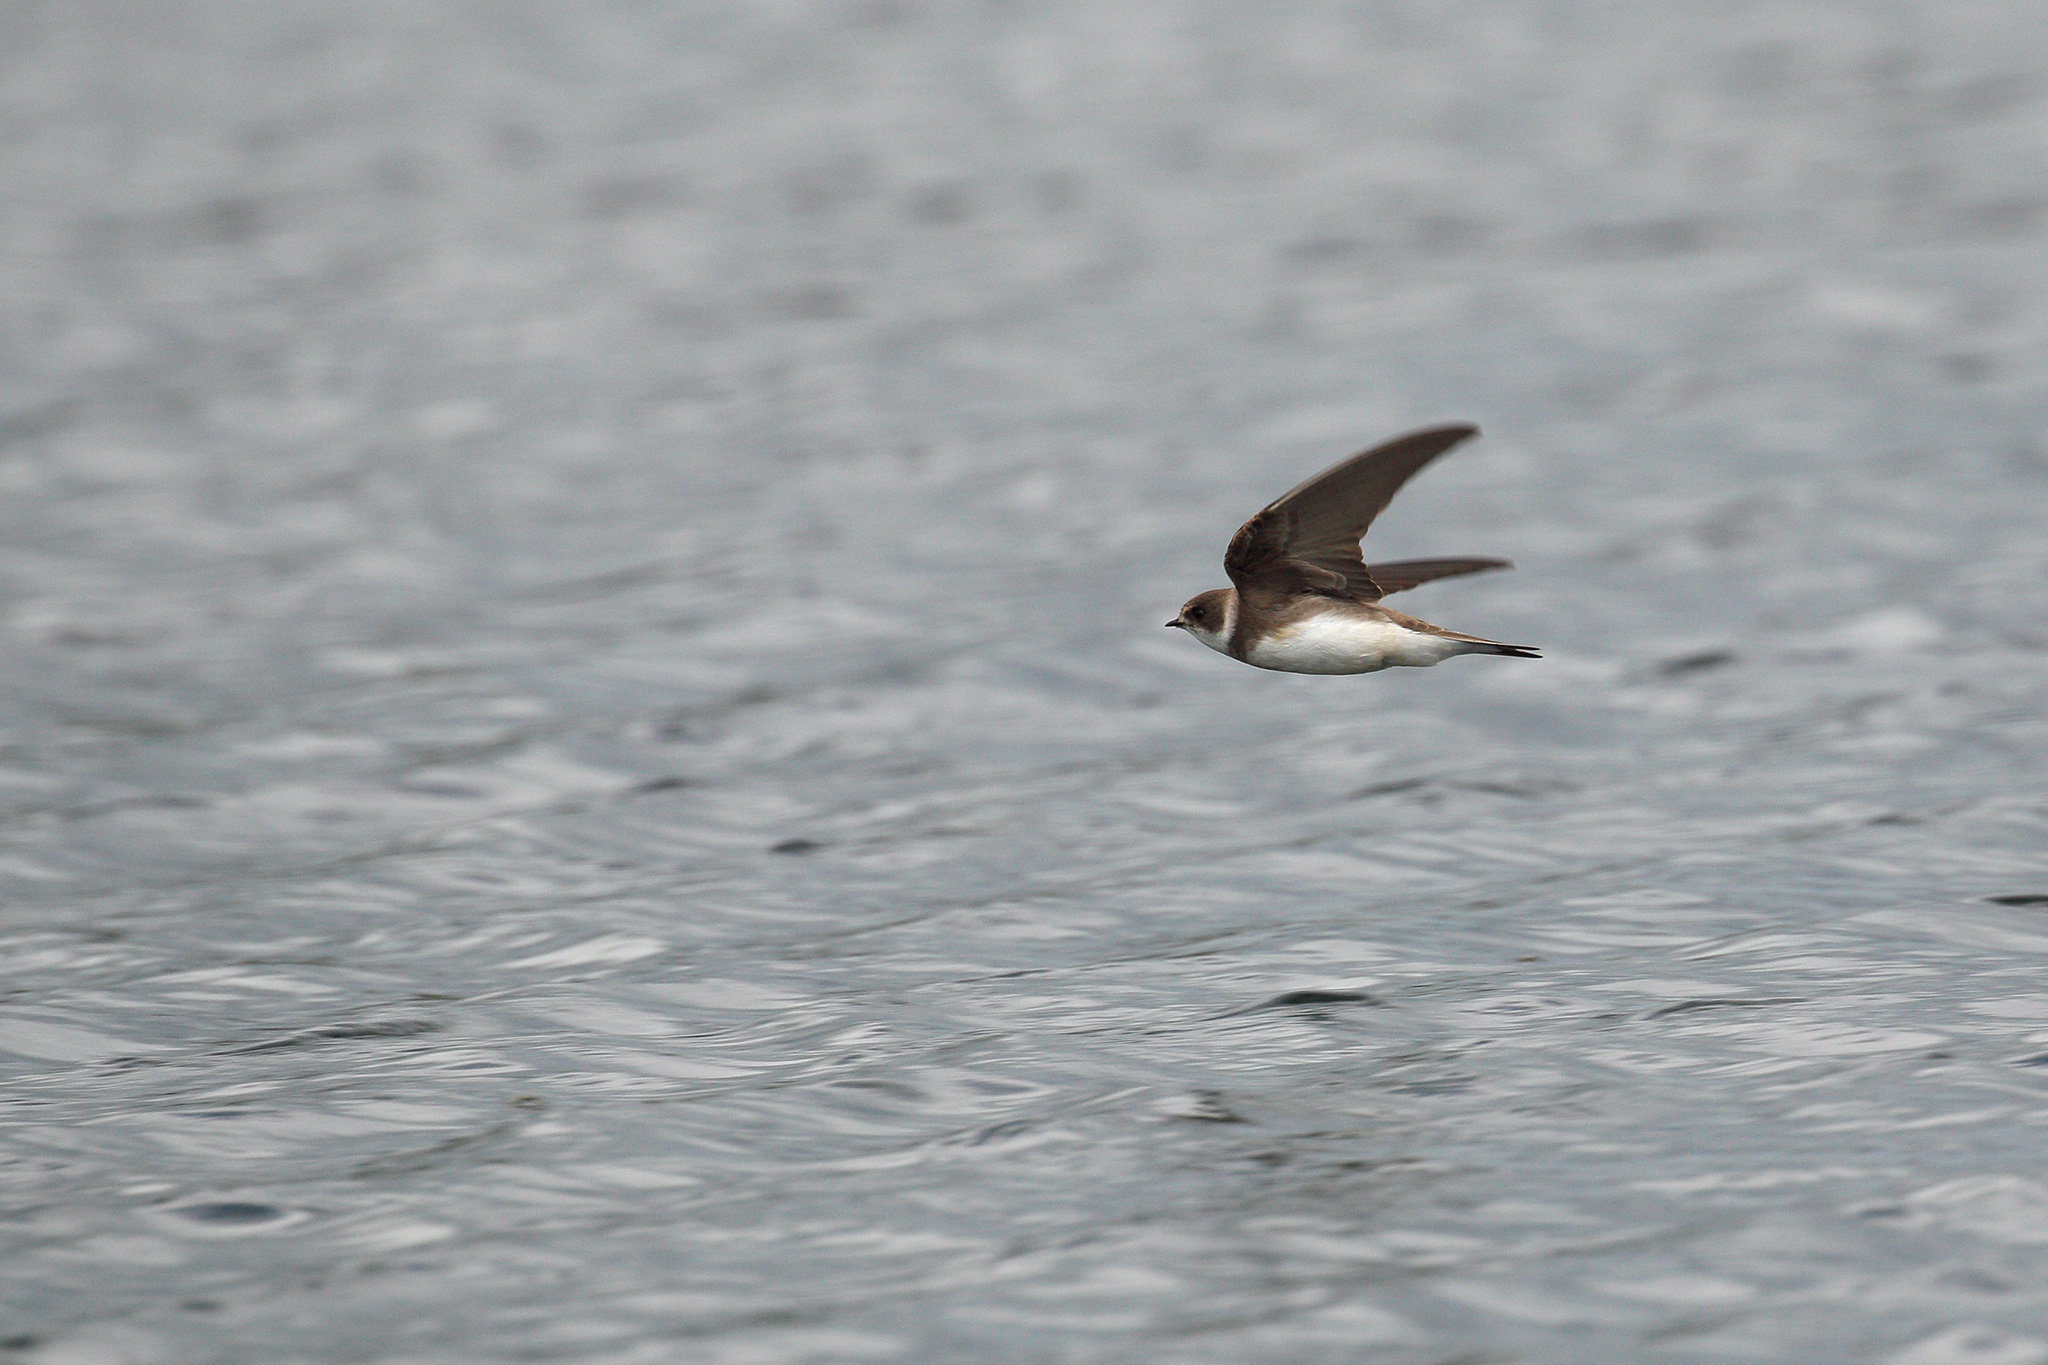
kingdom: Animalia
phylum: Chordata
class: Aves
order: Passeriformes
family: Hirundinidae
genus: Riparia
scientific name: Riparia riparia
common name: Sand martin
